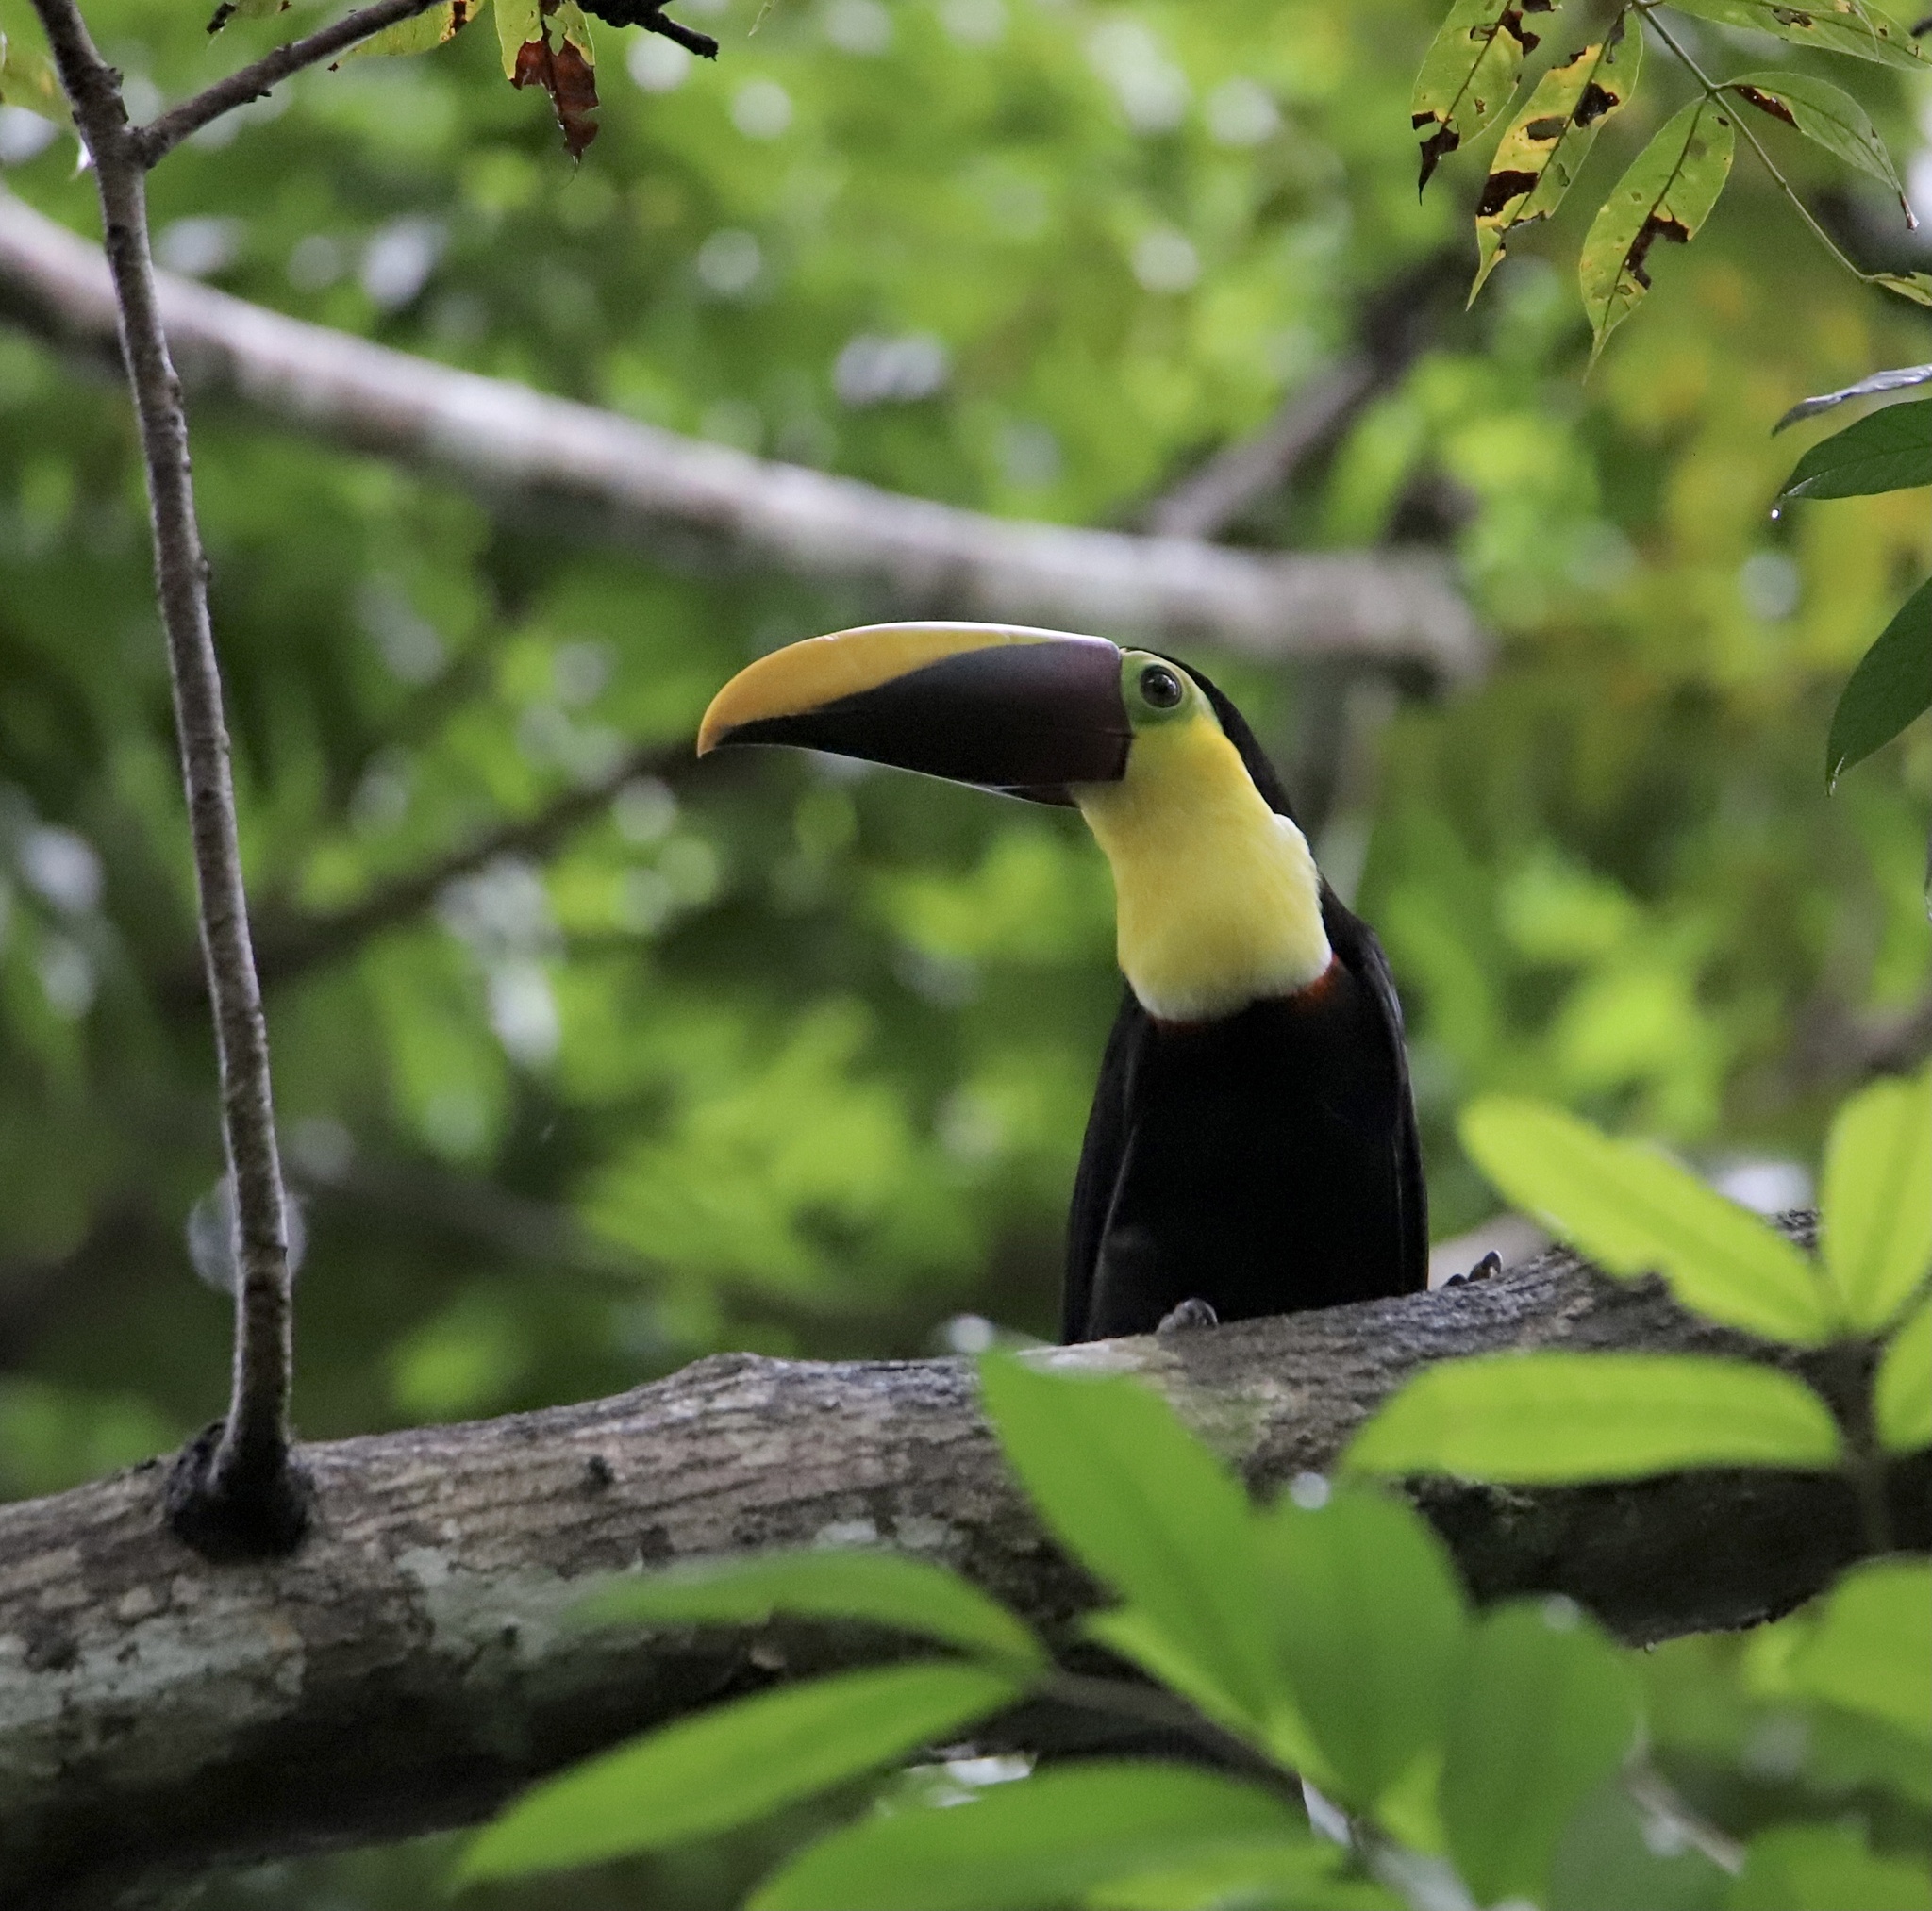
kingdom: Animalia
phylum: Chordata
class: Aves
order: Piciformes
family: Ramphastidae
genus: Ramphastos
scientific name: Ramphastos ambiguus
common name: Yellow-throated toucan
